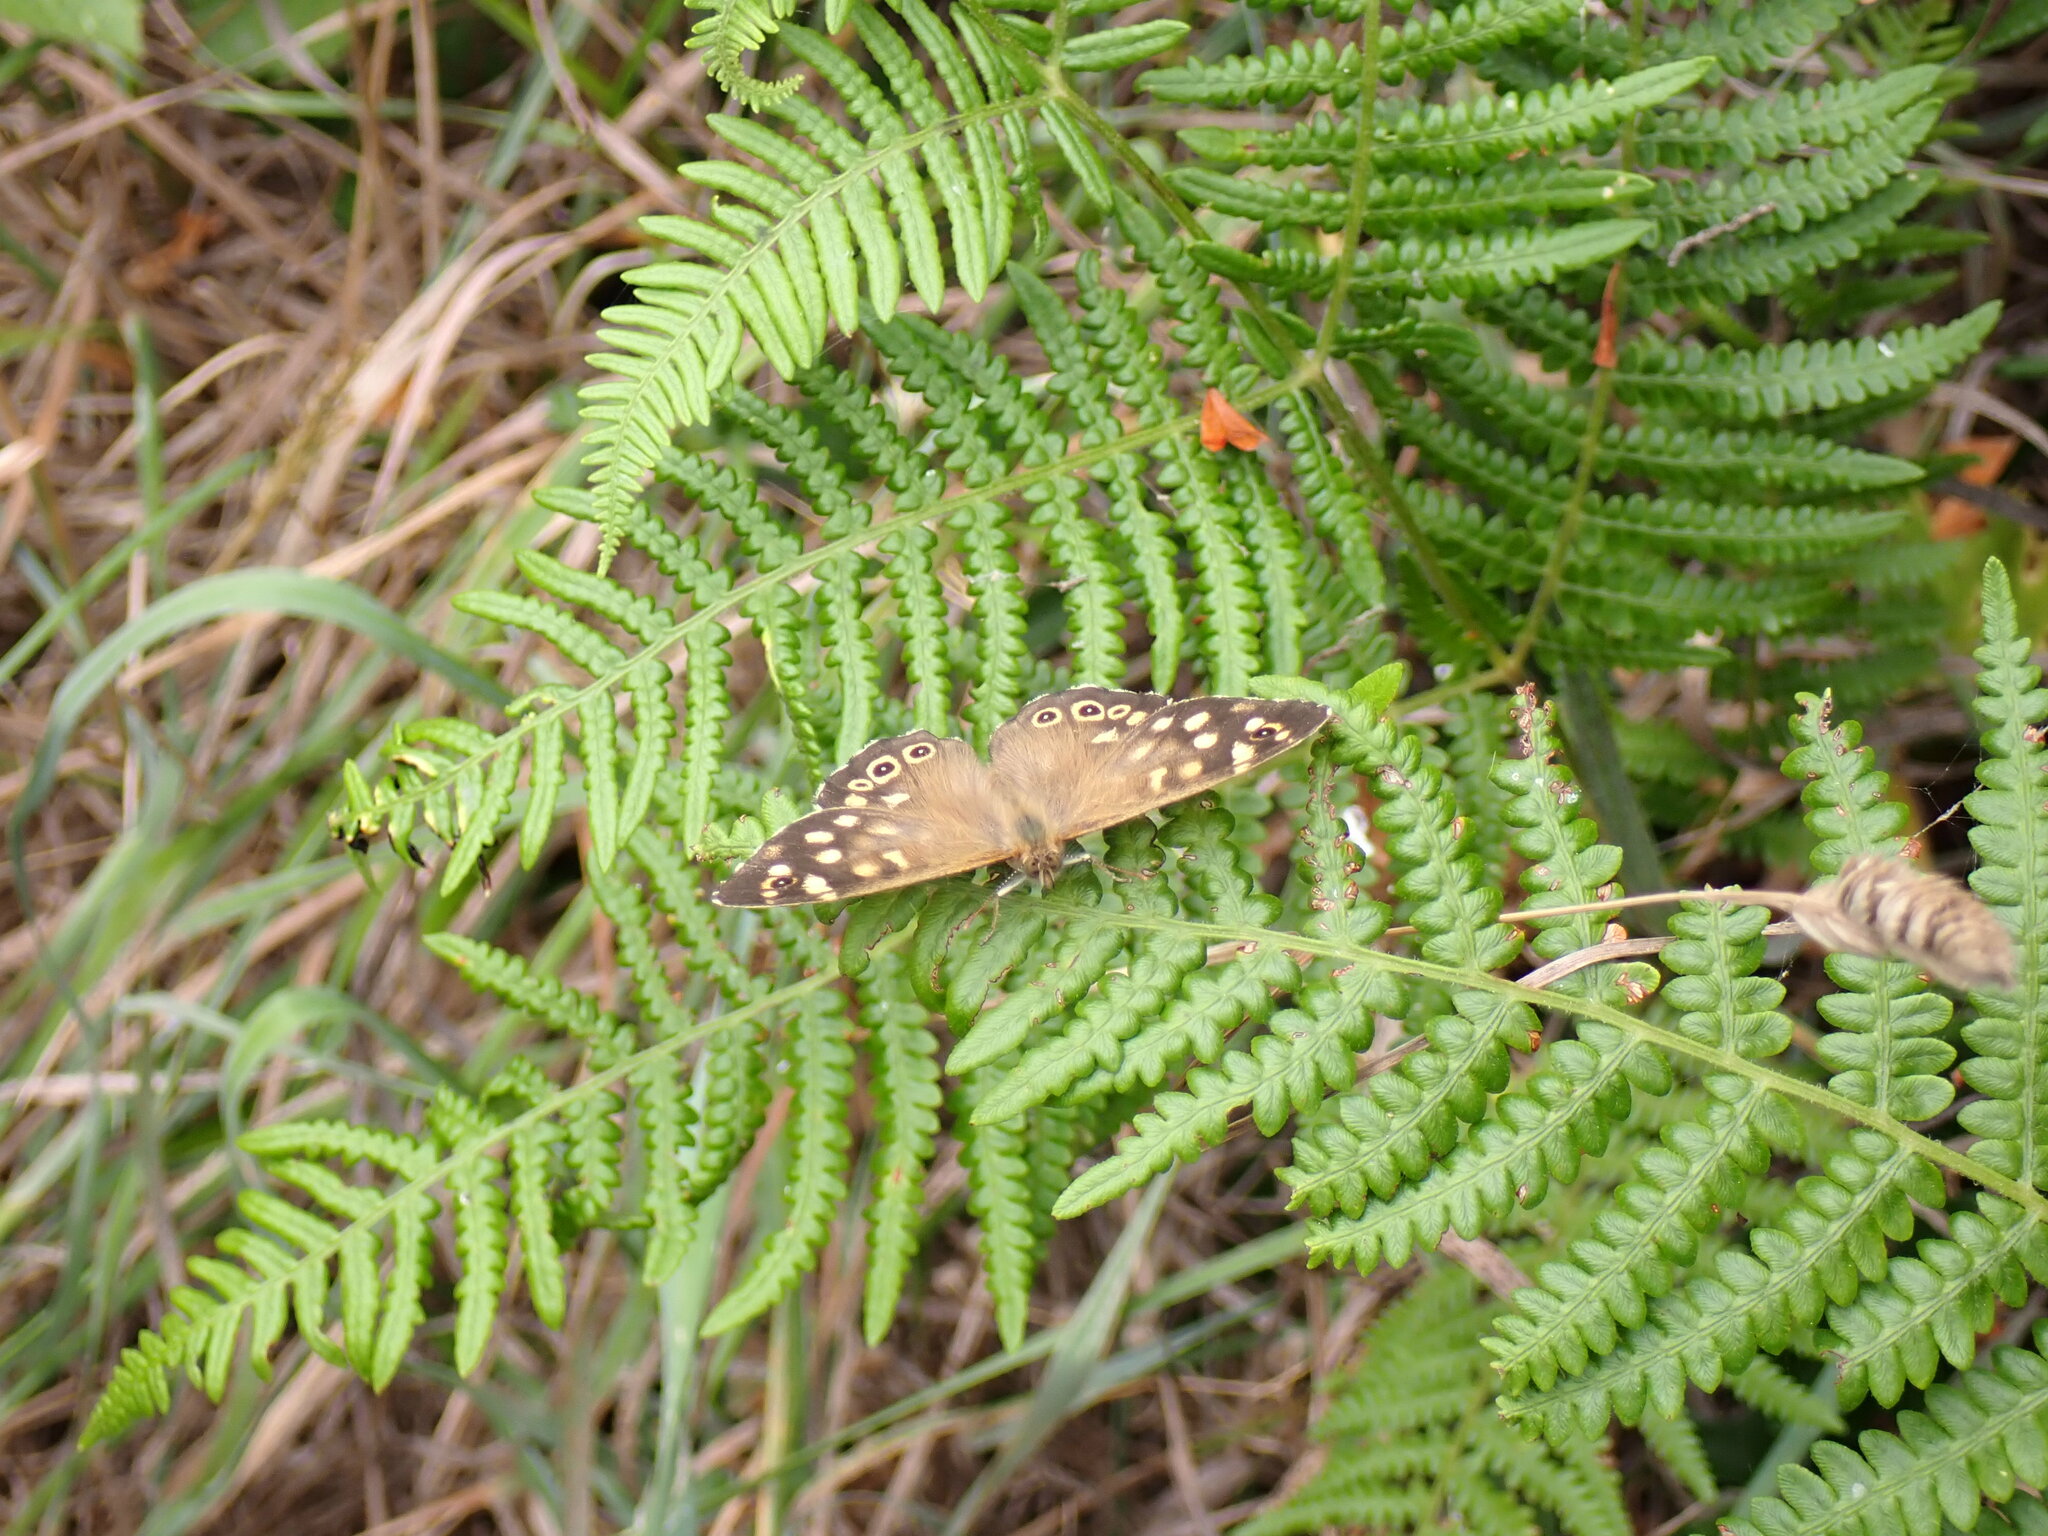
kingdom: Animalia
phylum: Arthropoda
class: Insecta
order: Lepidoptera
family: Nymphalidae
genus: Pararge
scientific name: Pararge aegeria
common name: Speckled wood
